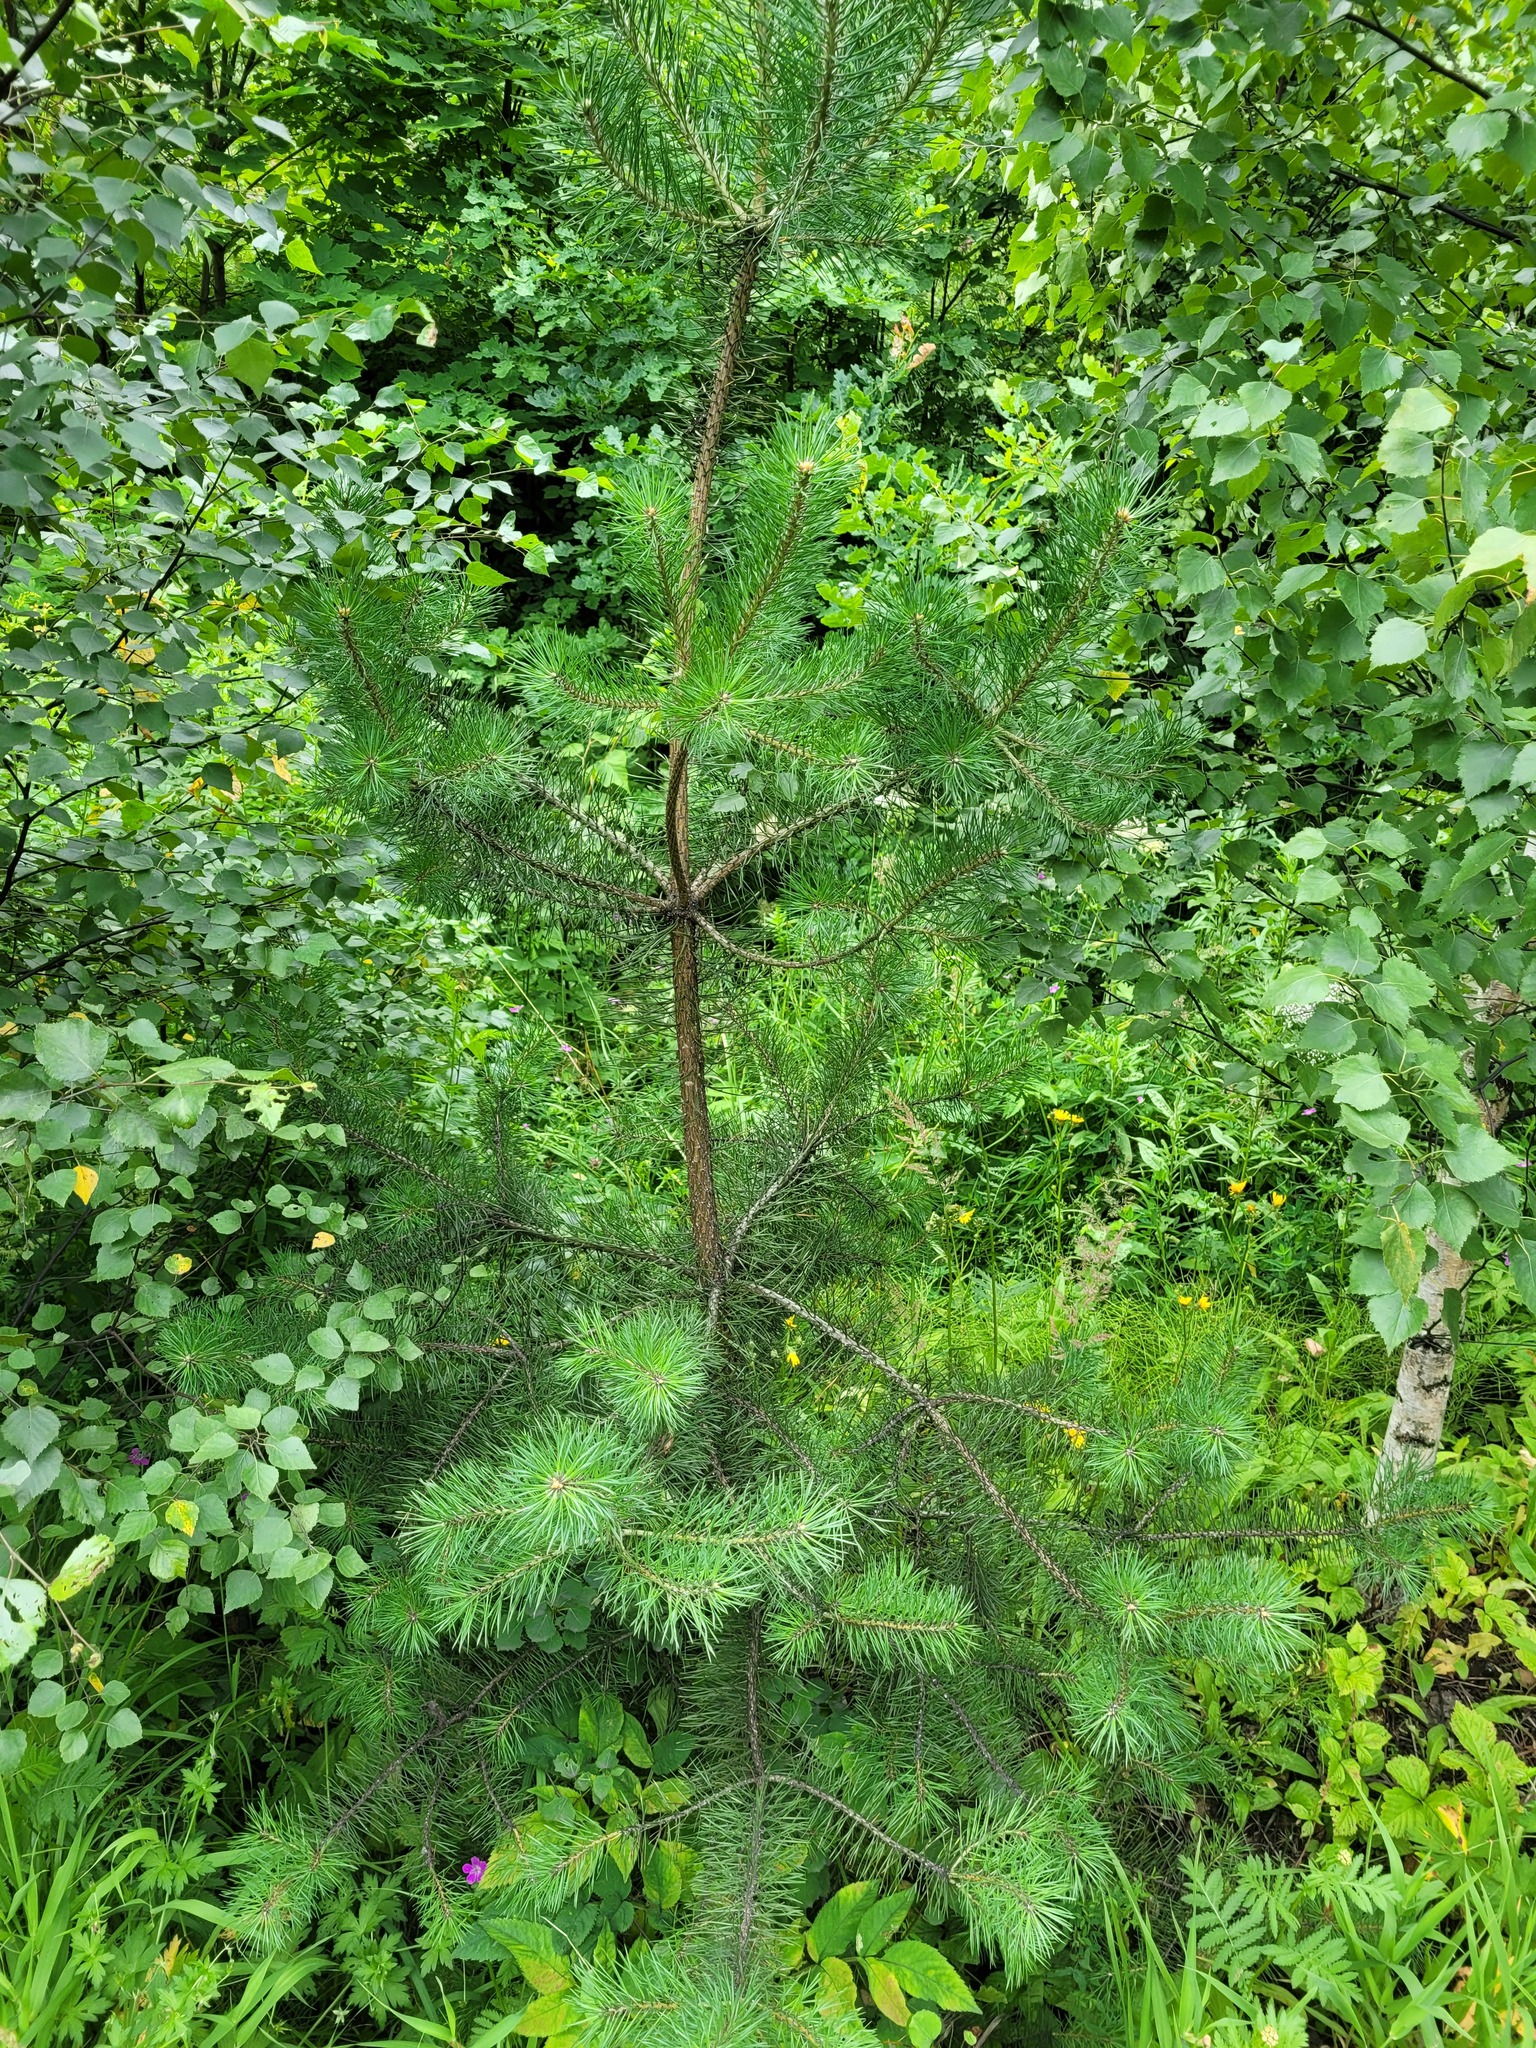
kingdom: Plantae
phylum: Tracheophyta
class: Pinopsida
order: Pinales
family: Pinaceae
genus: Pinus
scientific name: Pinus sylvestris
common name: Scots pine
